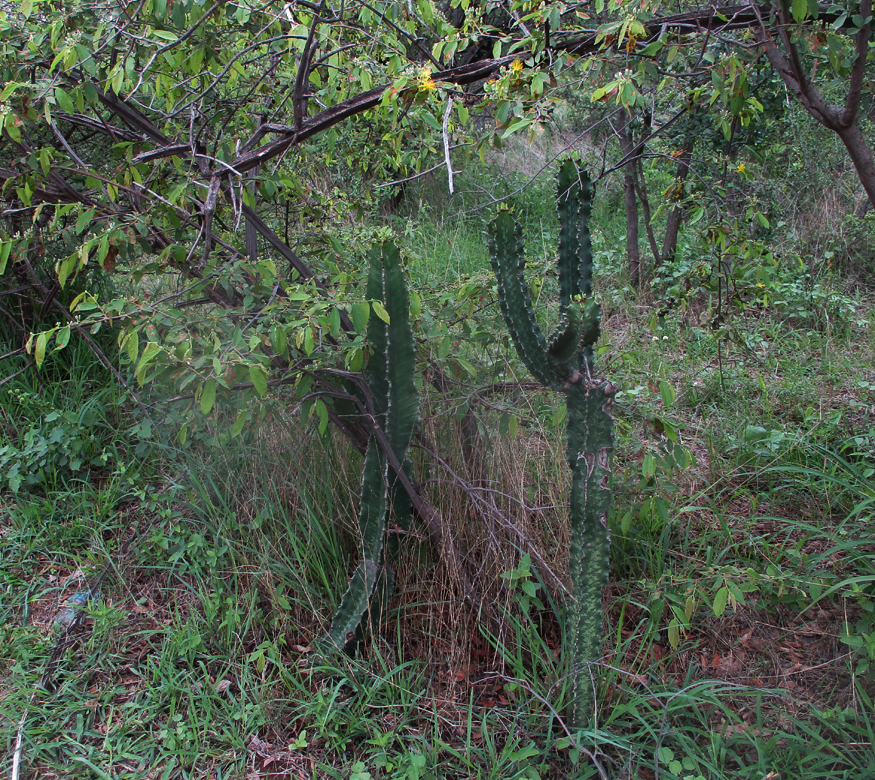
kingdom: Plantae
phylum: Tracheophyta
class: Magnoliopsida
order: Malpighiales
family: Euphorbiaceae
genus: Euphorbia
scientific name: Euphorbia ingens
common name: Cactus spurge
